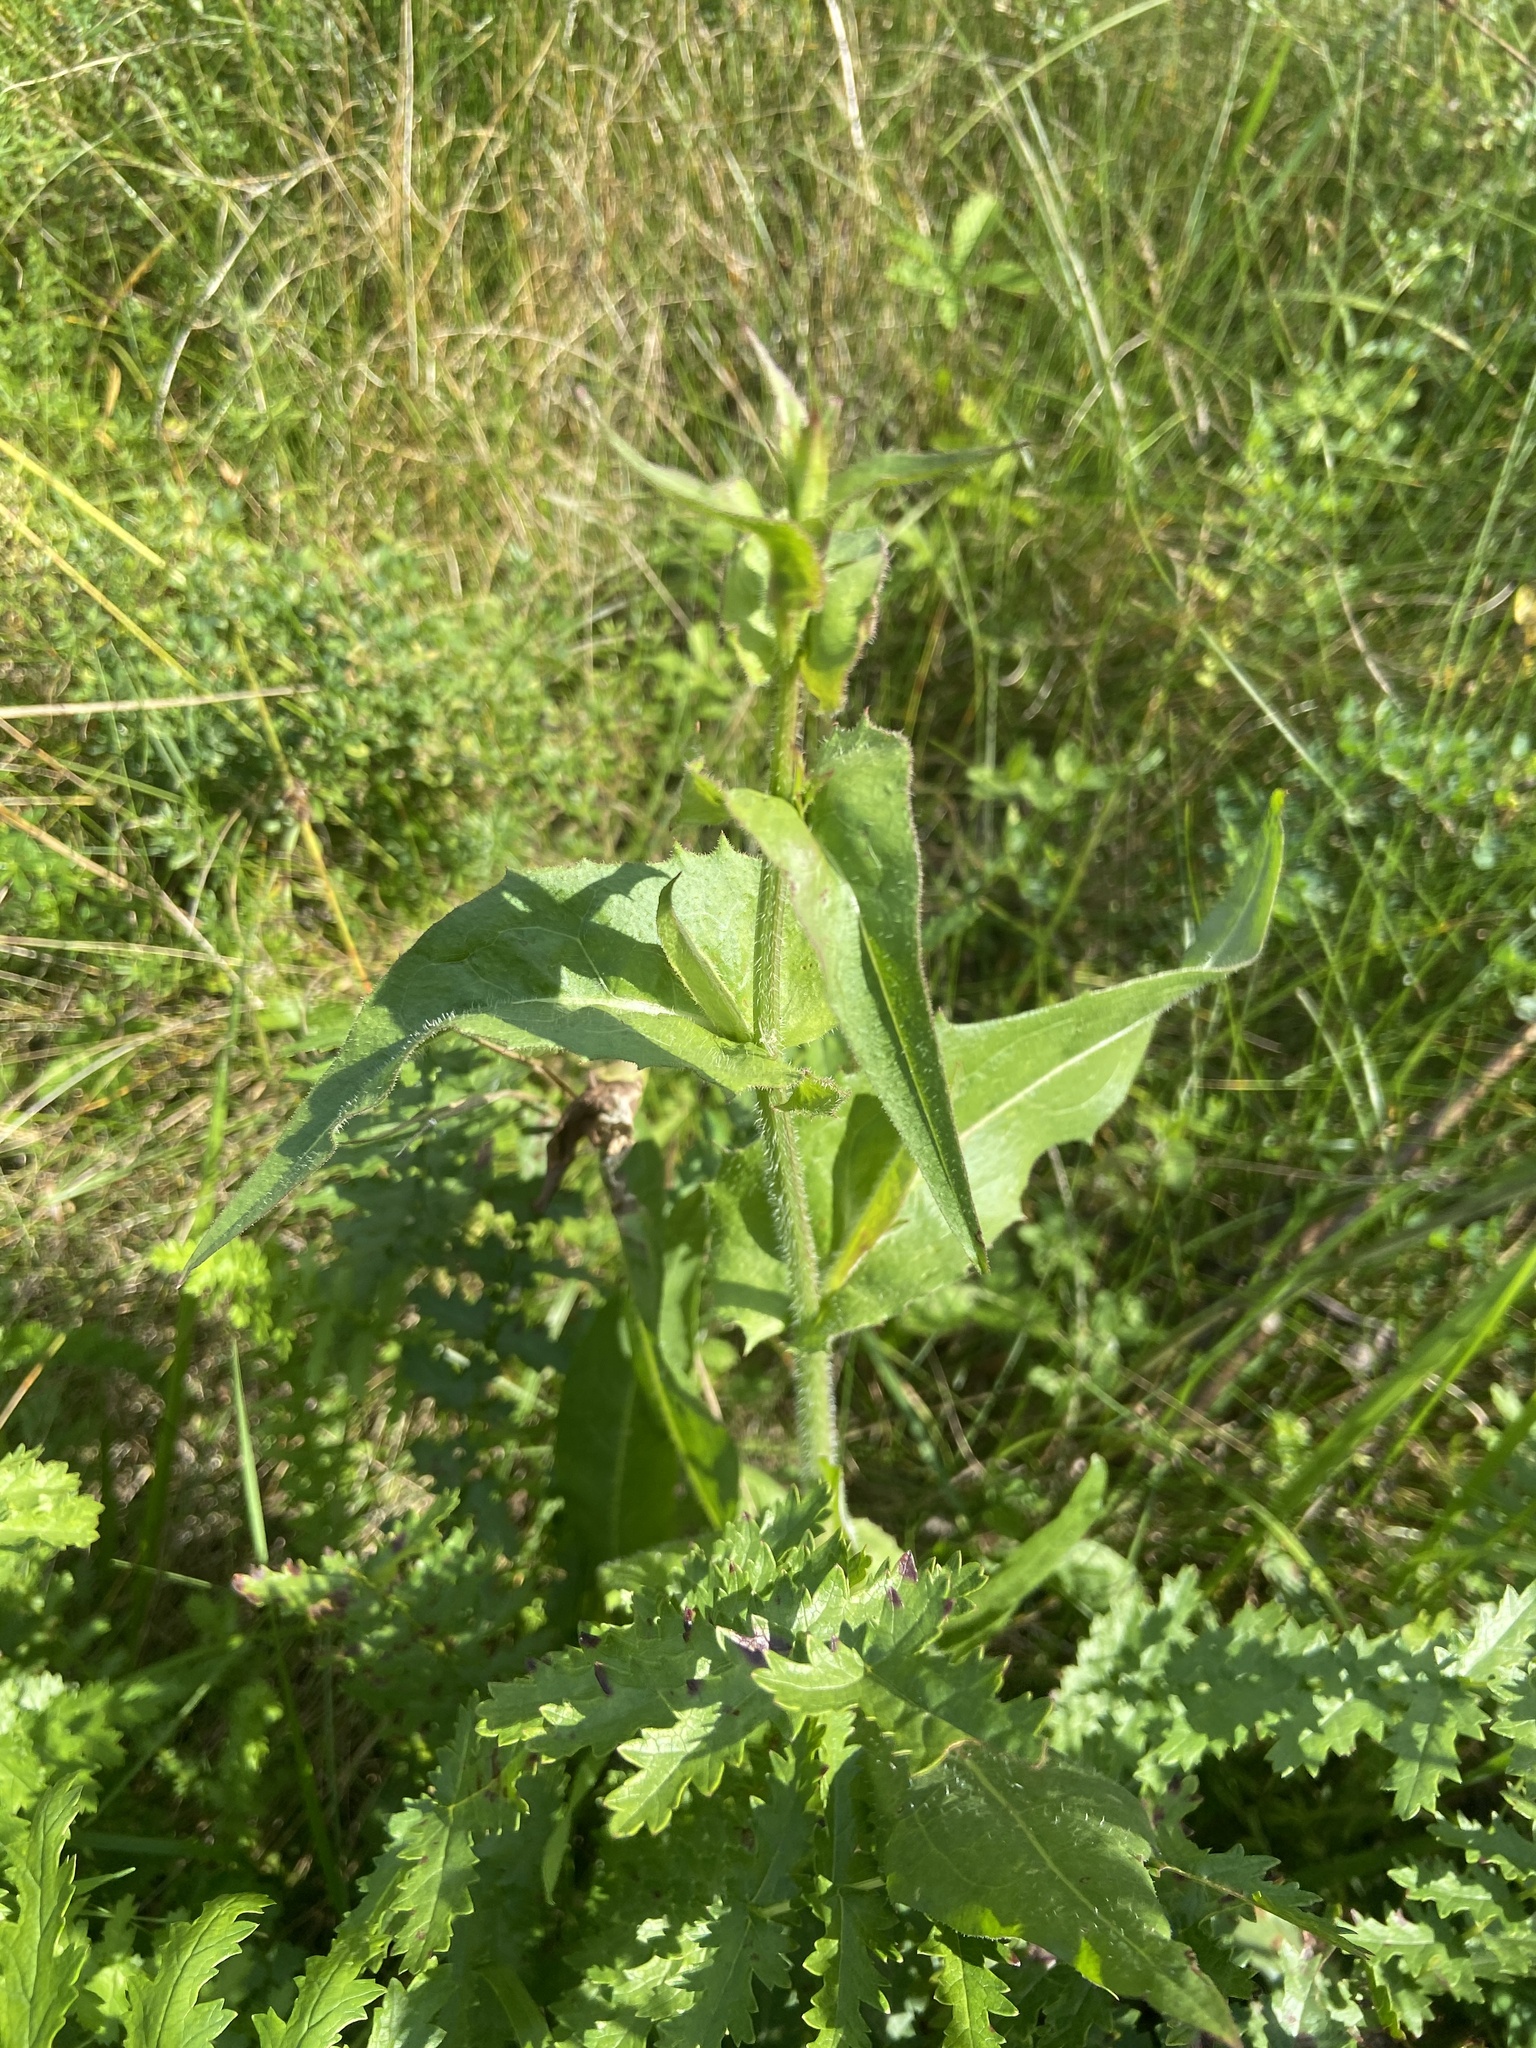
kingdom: Plantae
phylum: Tracheophyta
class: Magnoliopsida
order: Asterales
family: Asteraceae
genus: Cichorium
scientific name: Cichorium intybus
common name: Chicory
